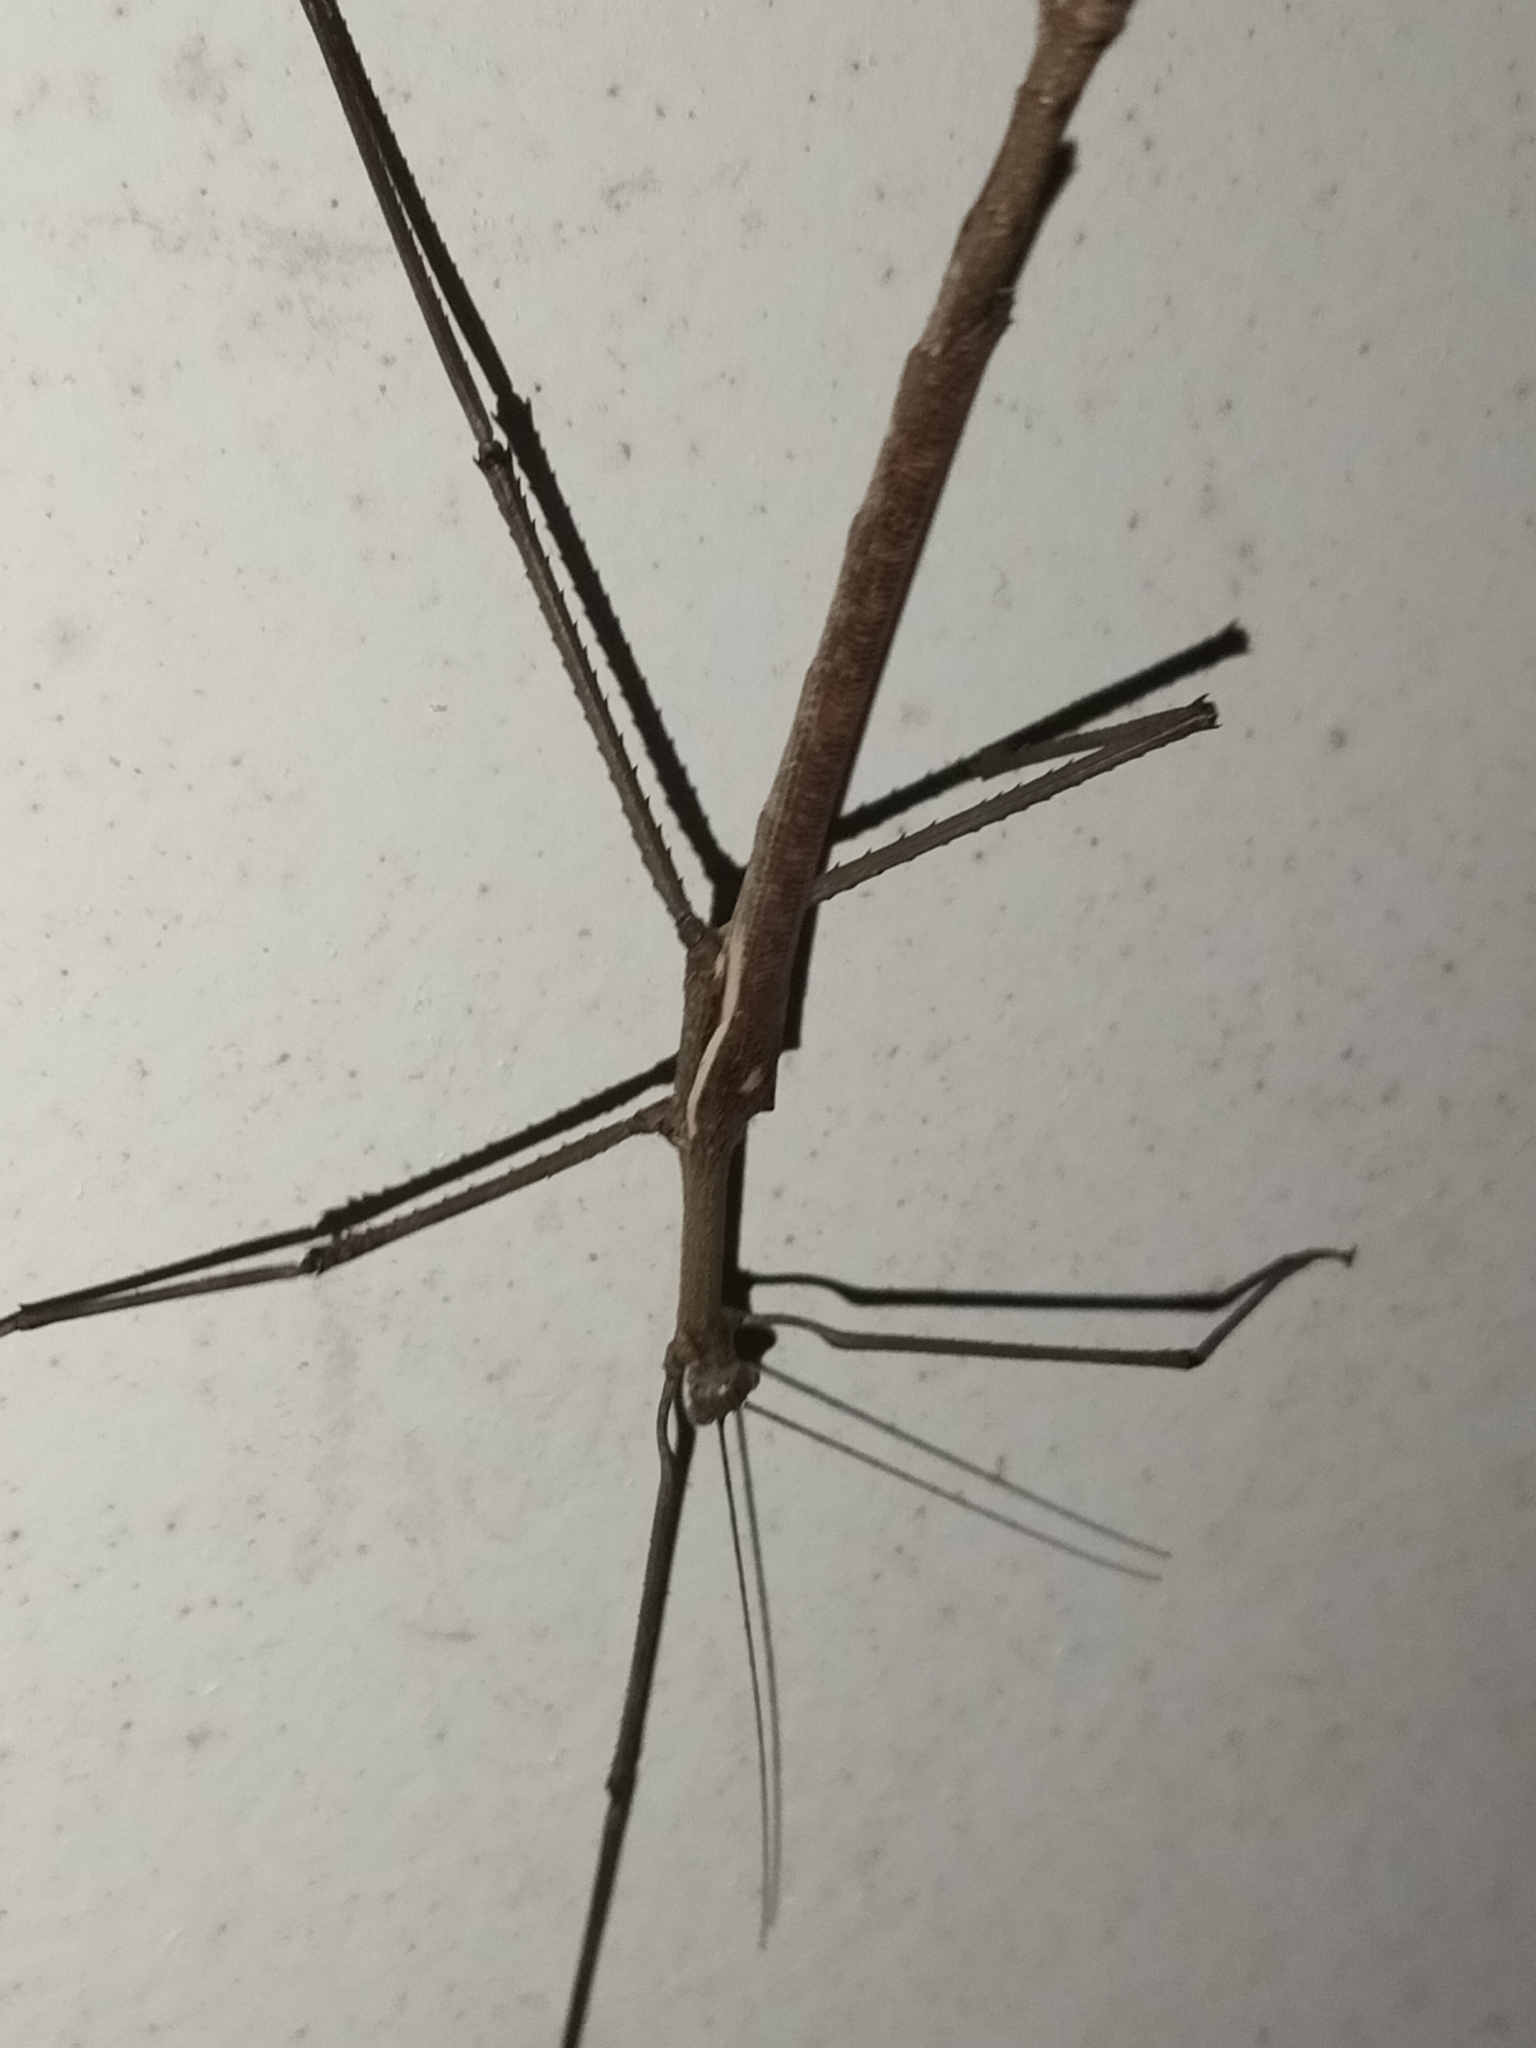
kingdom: Animalia
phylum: Arthropoda
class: Insecta
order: Phasmida
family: Phasmatidae
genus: Anchiale
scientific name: Anchiale briareus
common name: Strong stick insect
